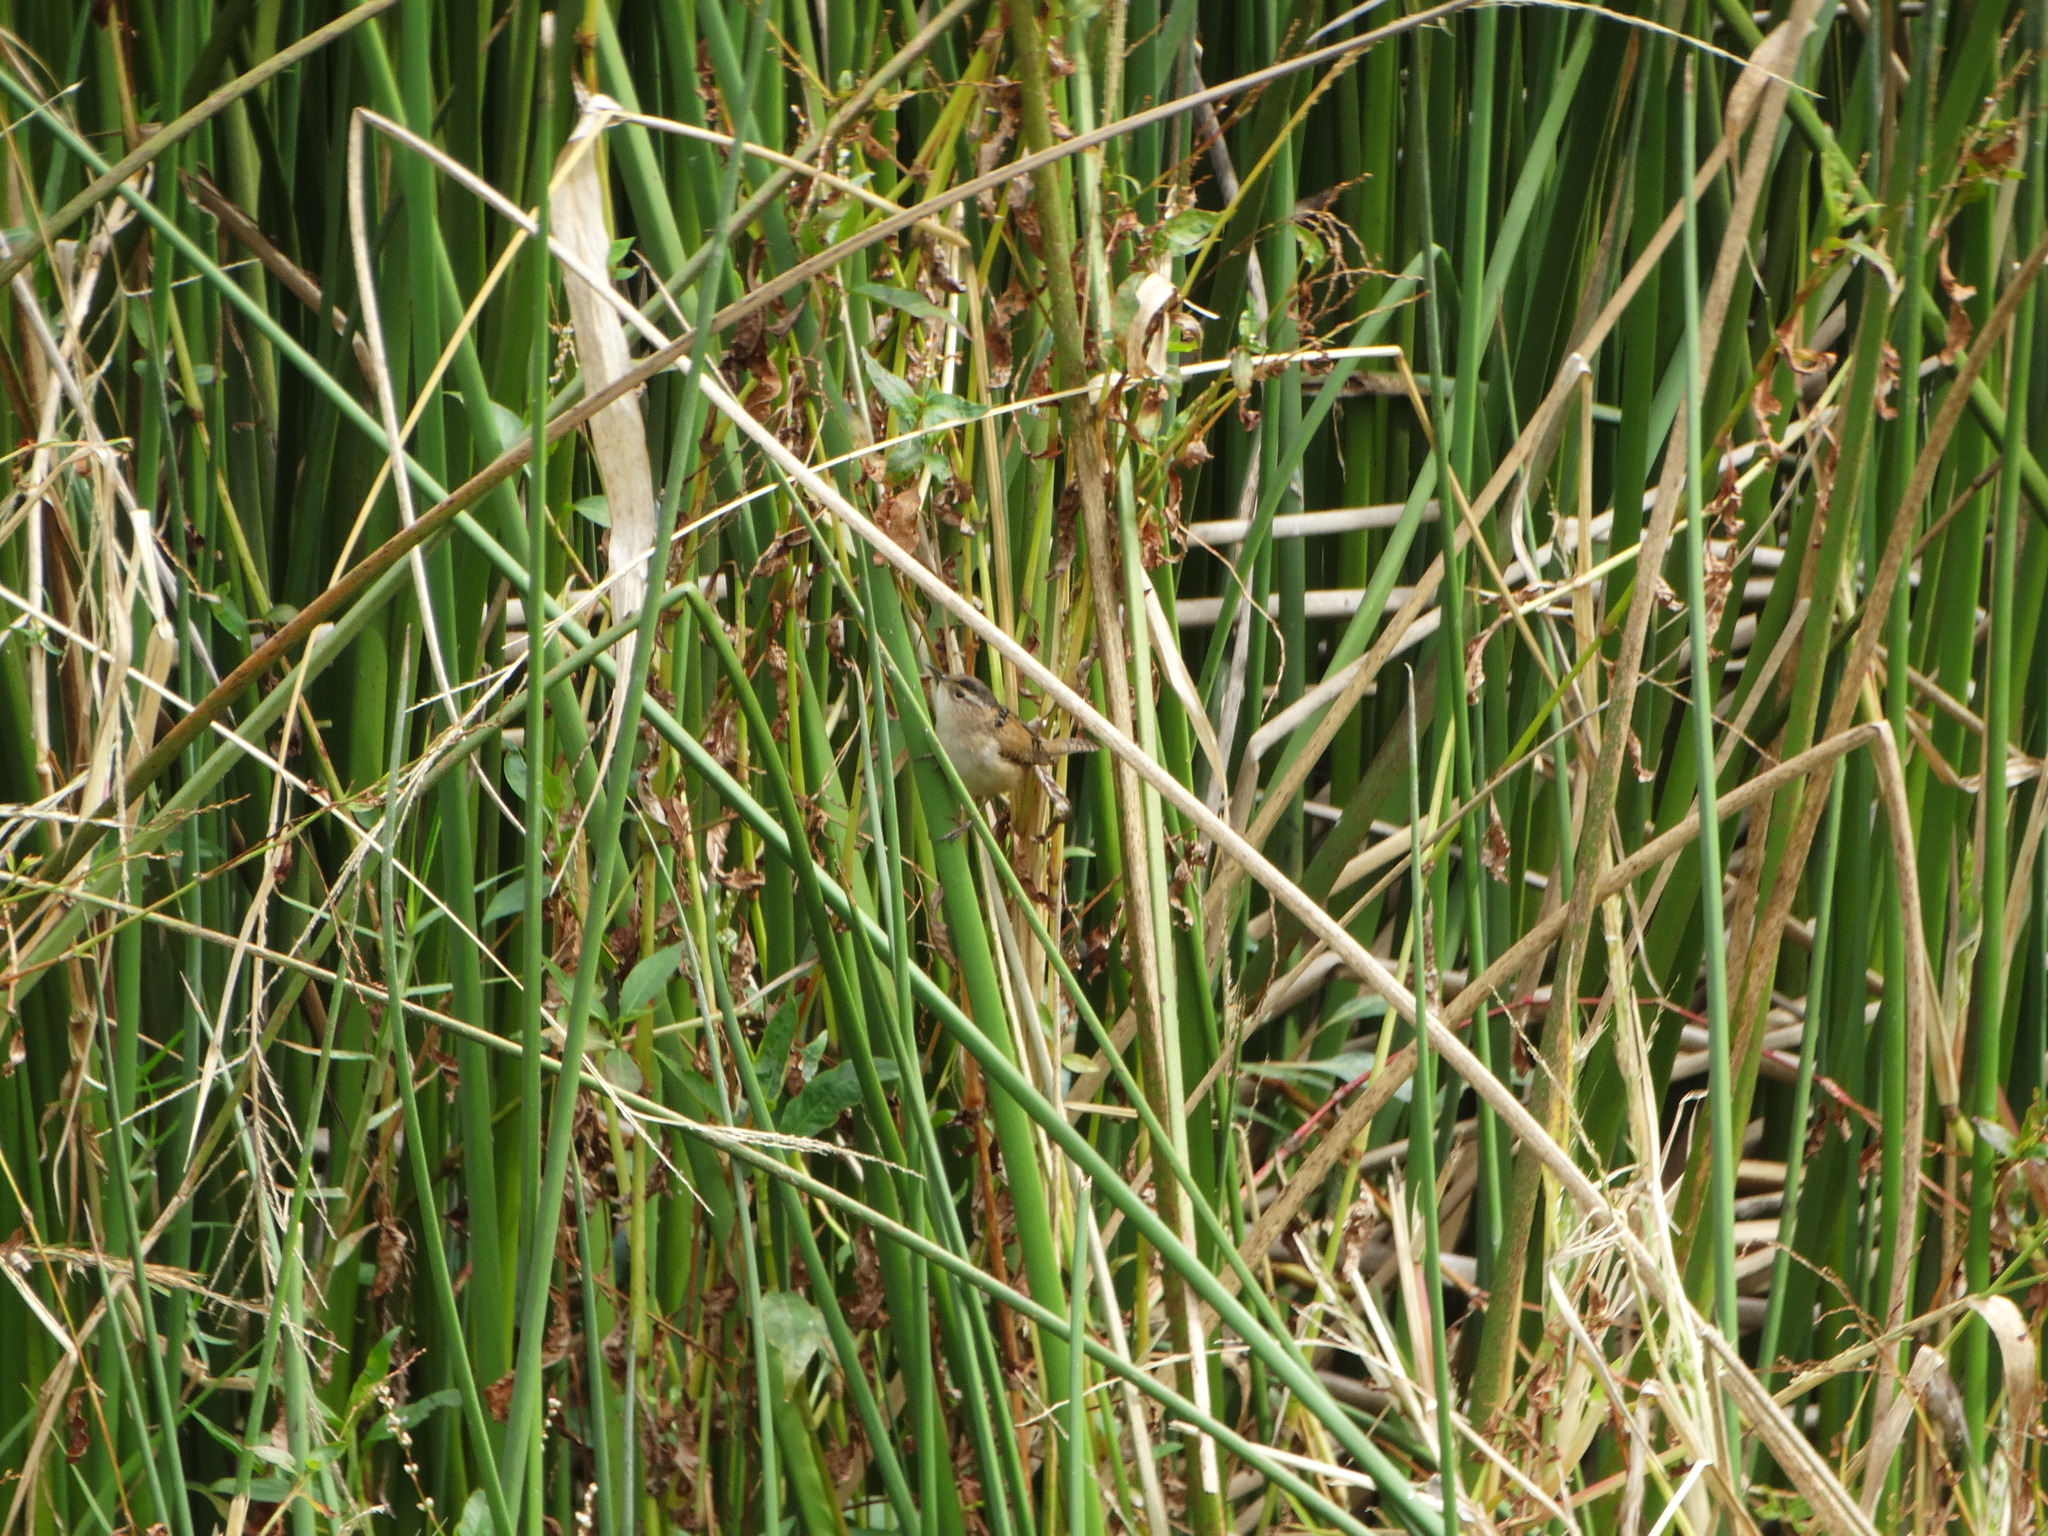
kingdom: Animalia
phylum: Chordata
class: Aves
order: Passeriformes
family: Troglodytidae
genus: Cistothorus
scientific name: Cistothorus palustris
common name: Marsh wren
